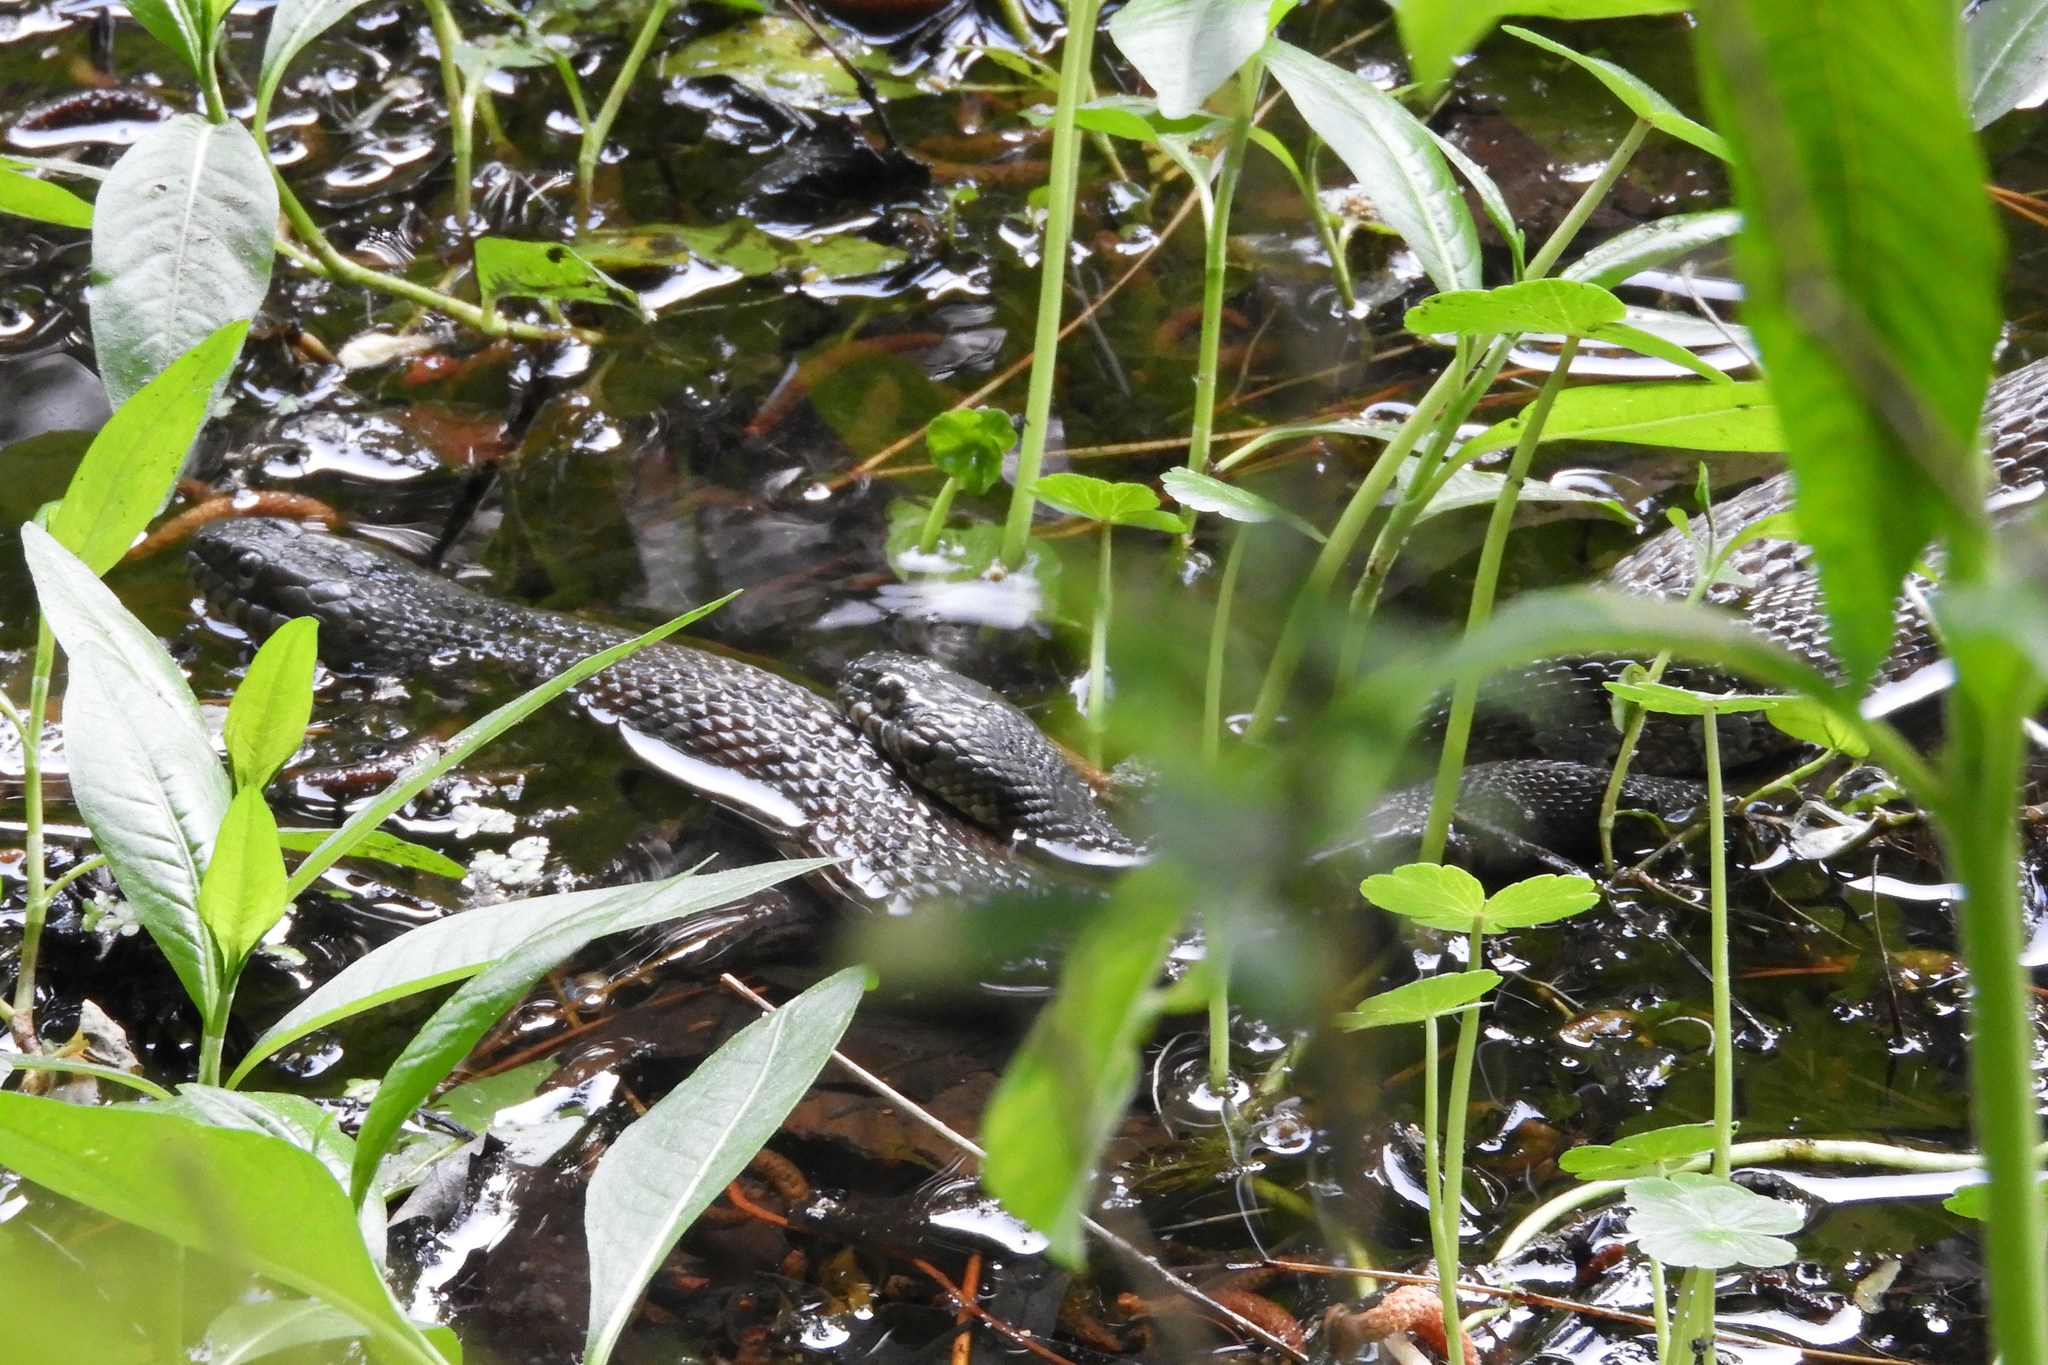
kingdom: Animalia
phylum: Chordata
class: Squamata
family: Colubridae
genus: Nerodia
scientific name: Nerodia sipedon
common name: Northern water snake
